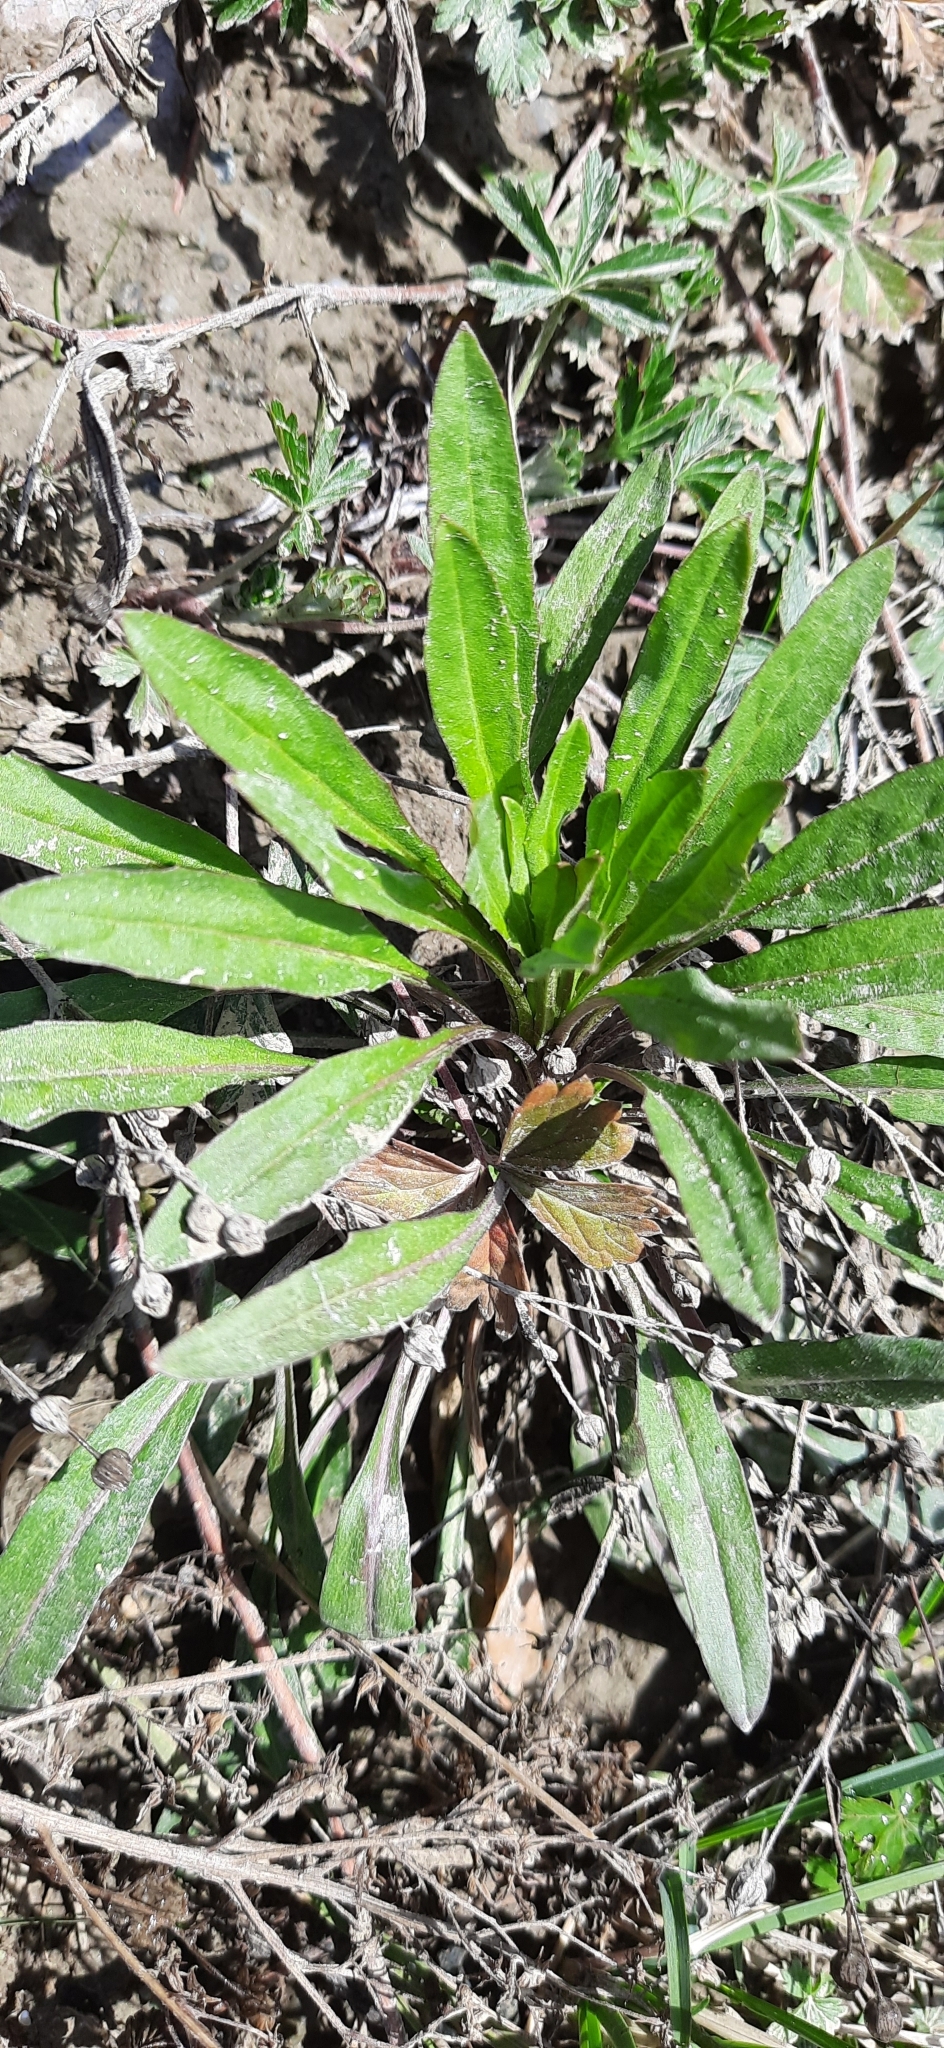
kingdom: Plantae
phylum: Tracheophyta
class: Magnoliopsida
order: Brassicales
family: Brassicaceae
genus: Erysimum
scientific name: Erysimum cheiranthoides
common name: Treacle mustard
